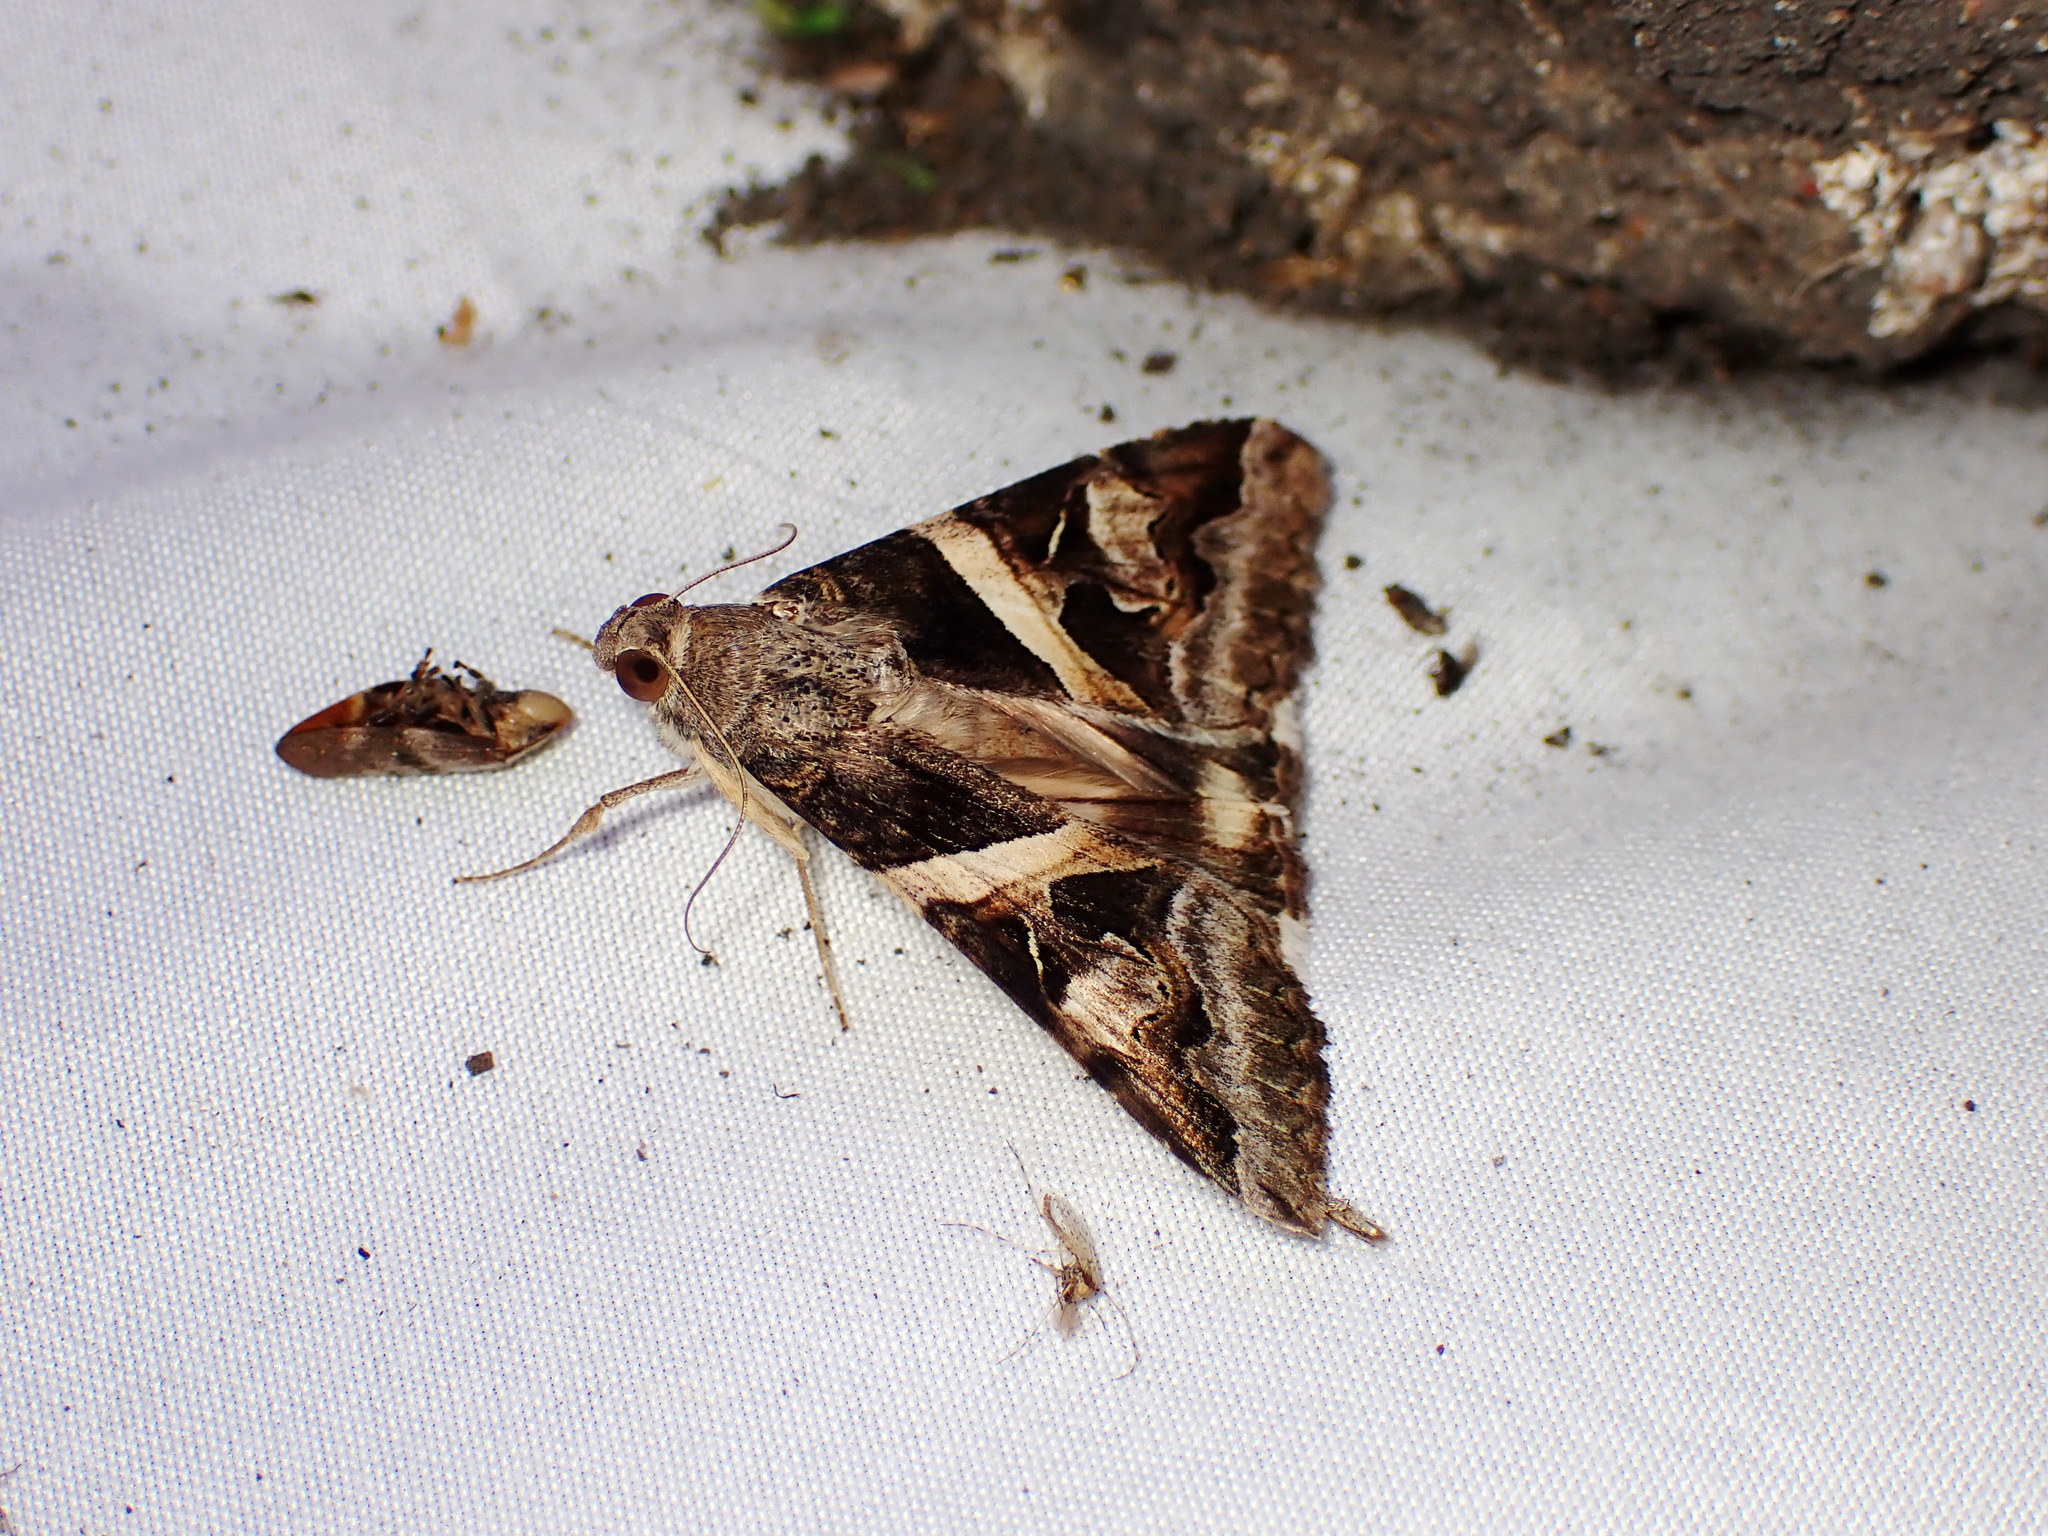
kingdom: Animalia
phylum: Arthropoda
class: Insecta
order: Lepidoptera
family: Erebidae
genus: Melipotis
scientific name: Melipotis indomita
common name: Moth
